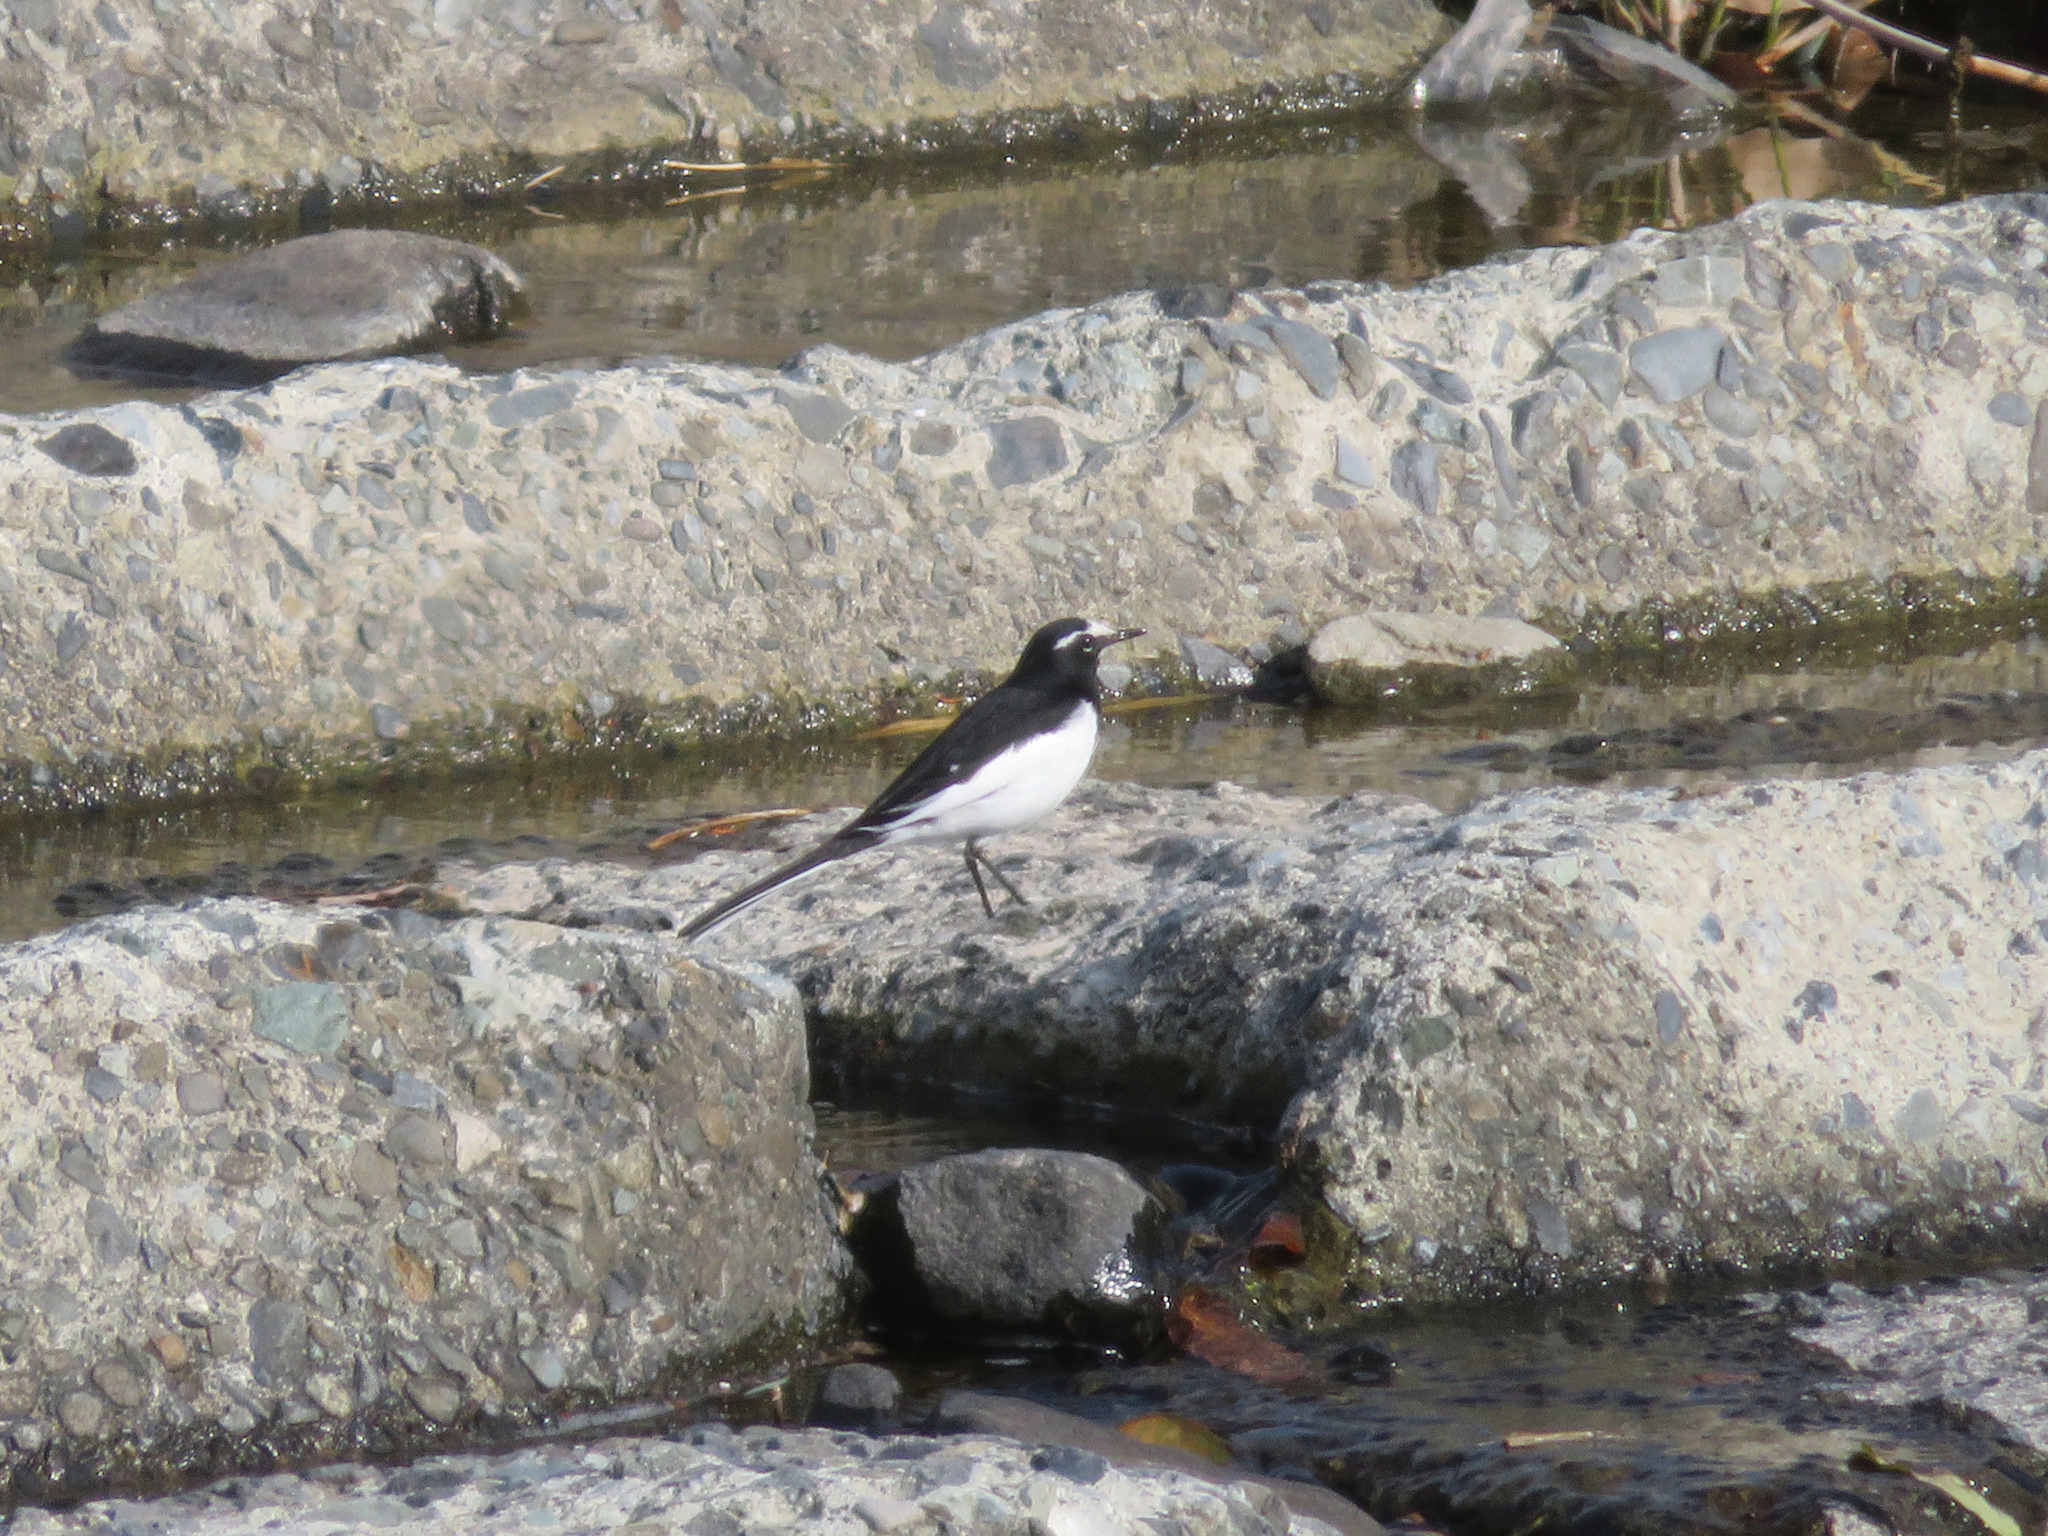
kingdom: Animalia
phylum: Chordata
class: Aves
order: Passeriformes
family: Motacillidae
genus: Motacilla
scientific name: Motacilla grandis
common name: Japanese wagtail
